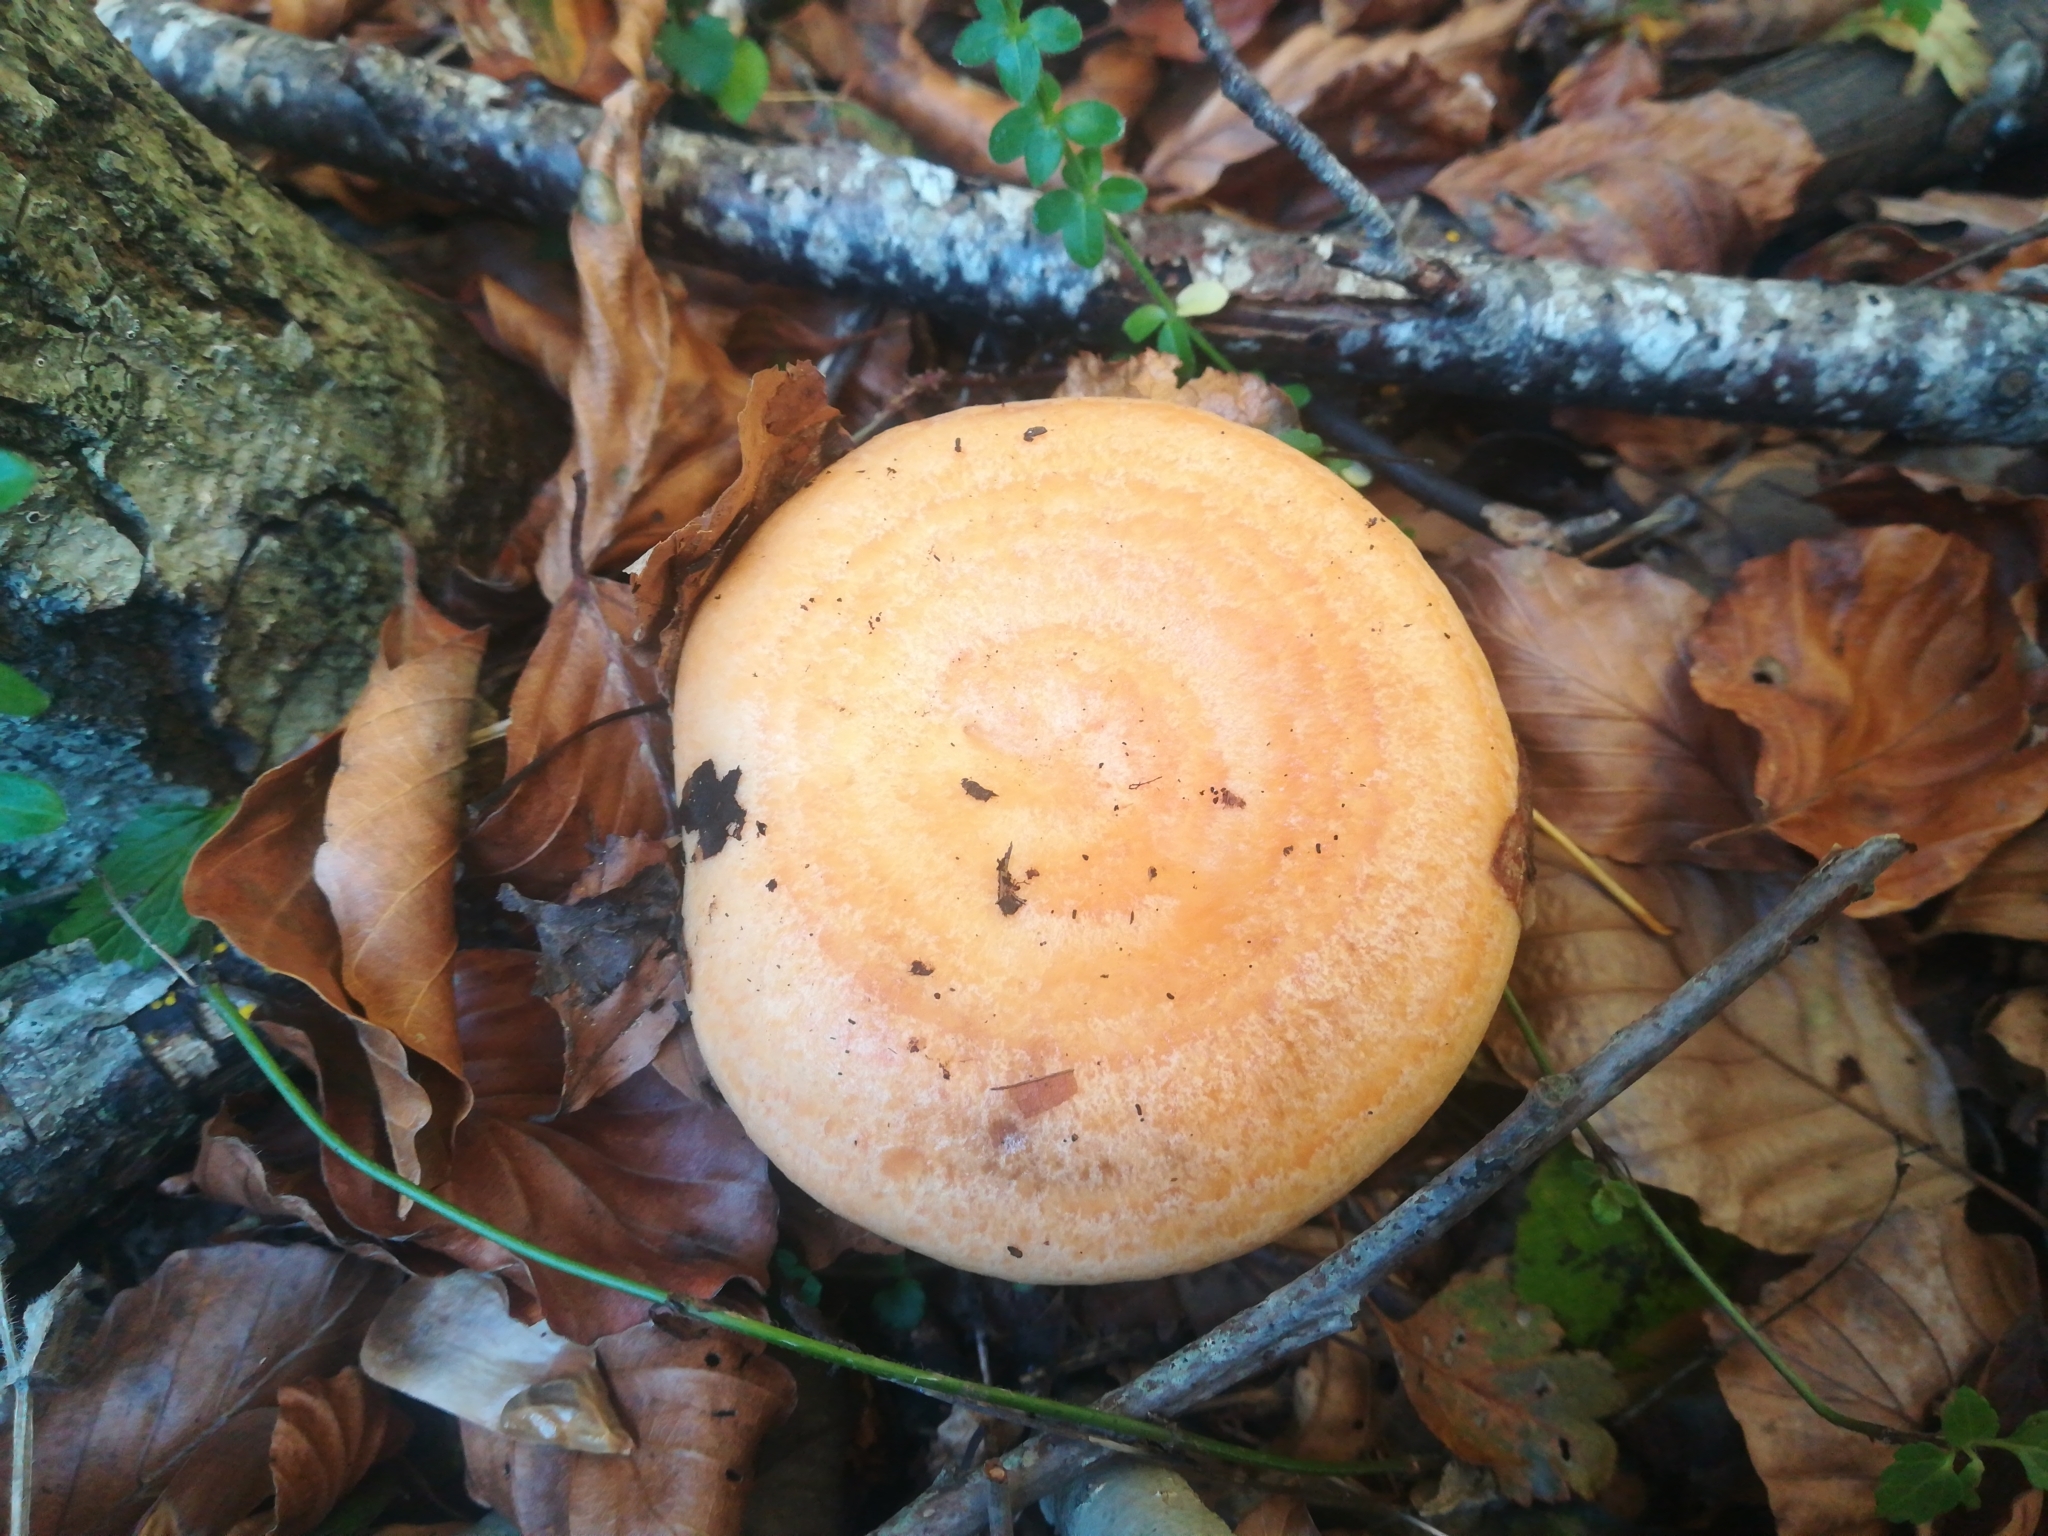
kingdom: Fungi
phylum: Basidiomycota
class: Agaricomycetes
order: Russulales
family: Russulaceae
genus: Lactarius
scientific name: Lactarius deliciosus
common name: Saffron milk-cap
